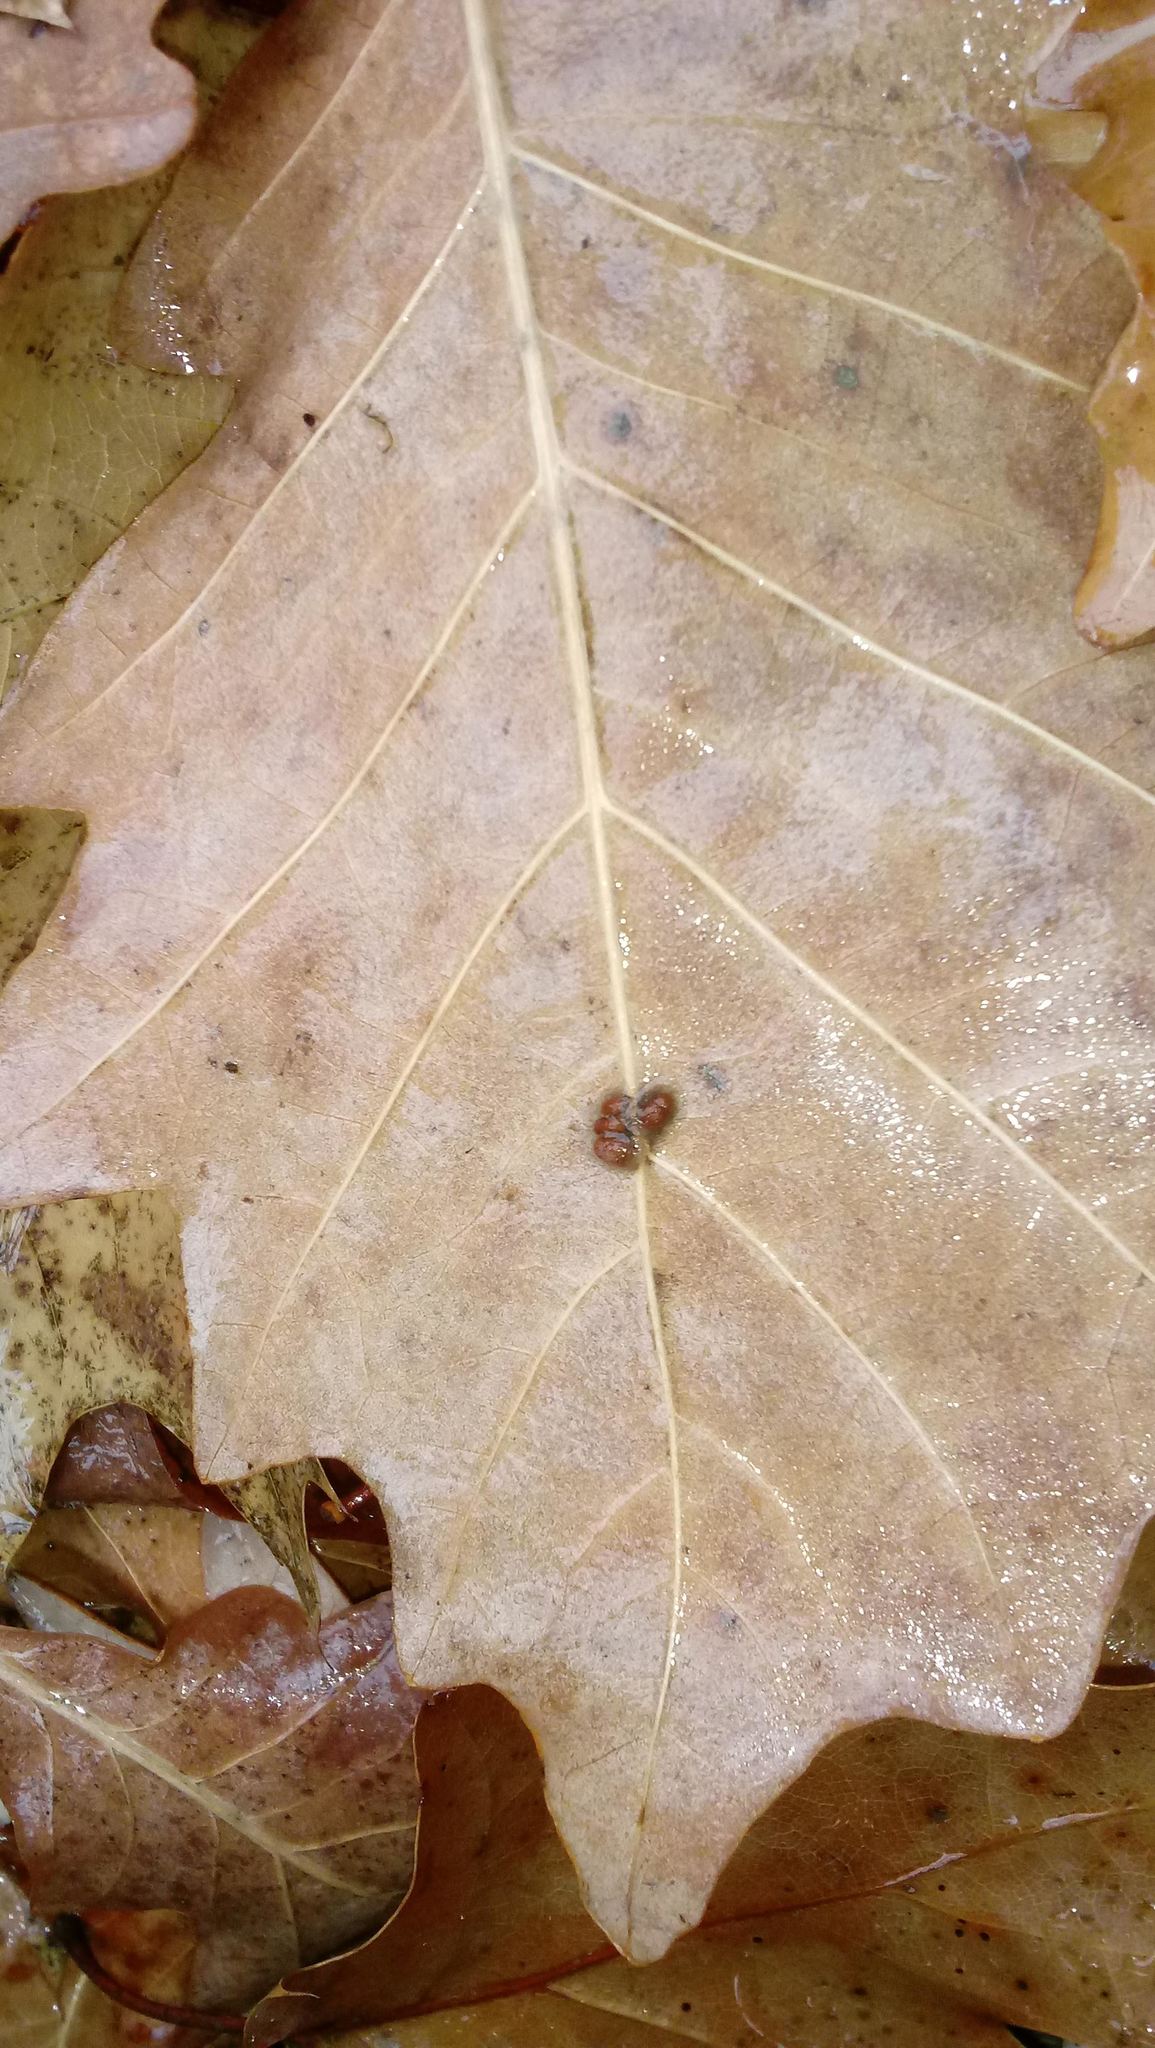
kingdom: Animalia
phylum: Arthropoda
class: Insecta
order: Hymenoptera
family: Cynipidae
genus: Andricus
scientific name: Andricus Druon ignotum
